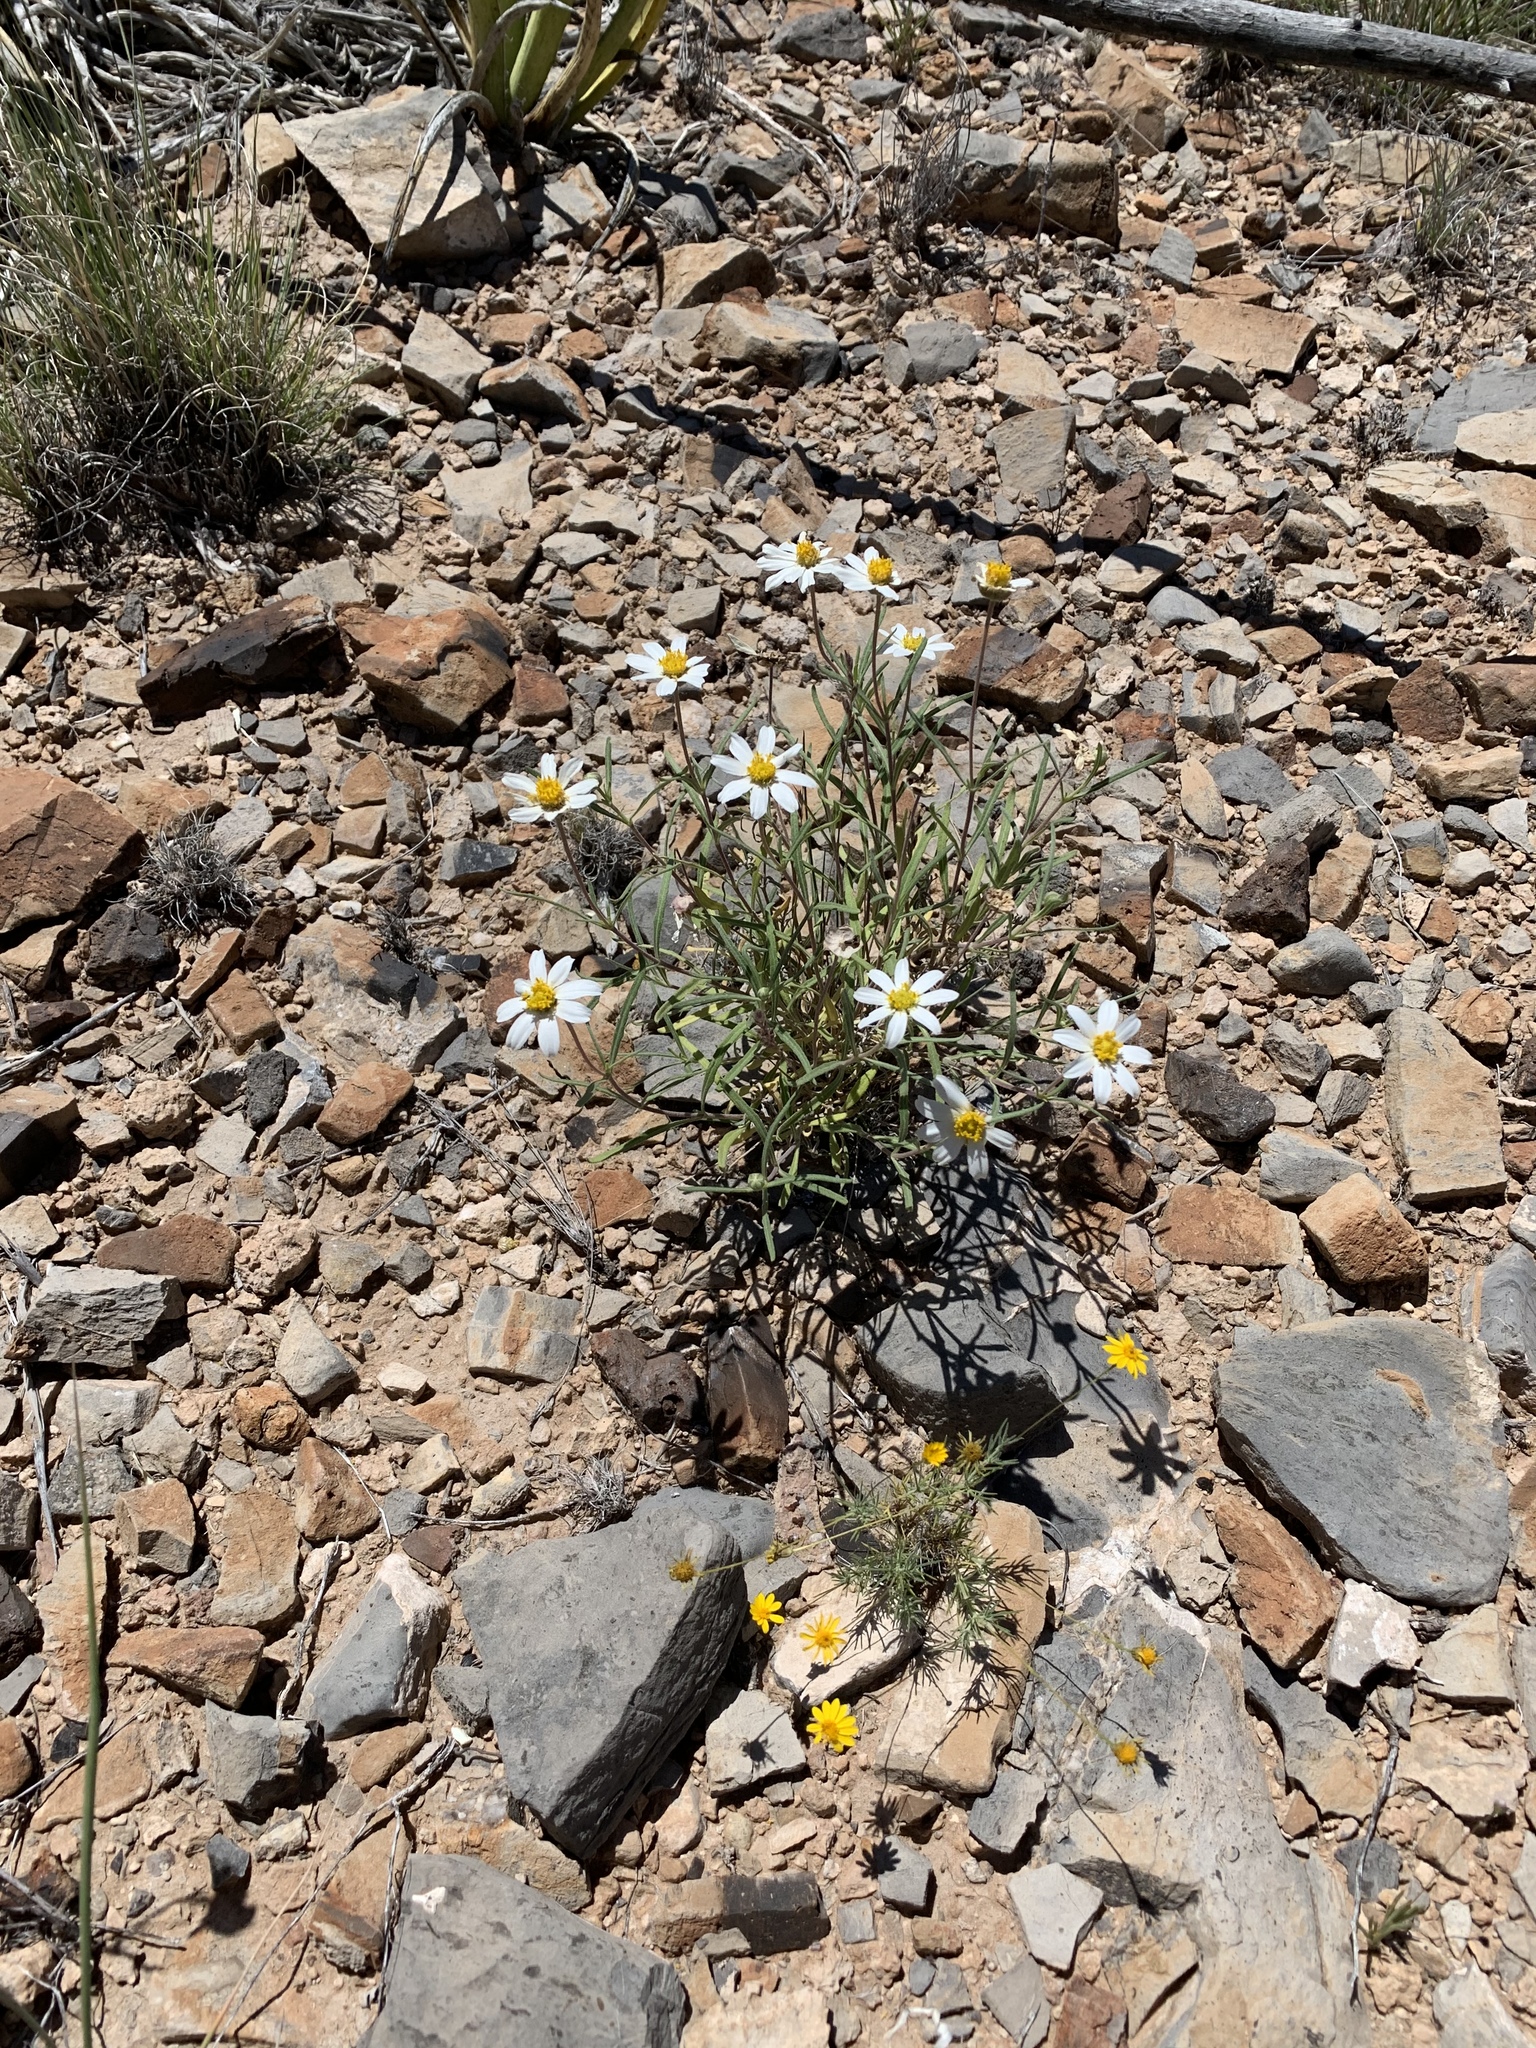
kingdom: Plantae
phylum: Tracheophyta
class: Magnoliopsida
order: Asterales
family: Asteraceae
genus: Melampodium
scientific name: Melampodium leucanthum
